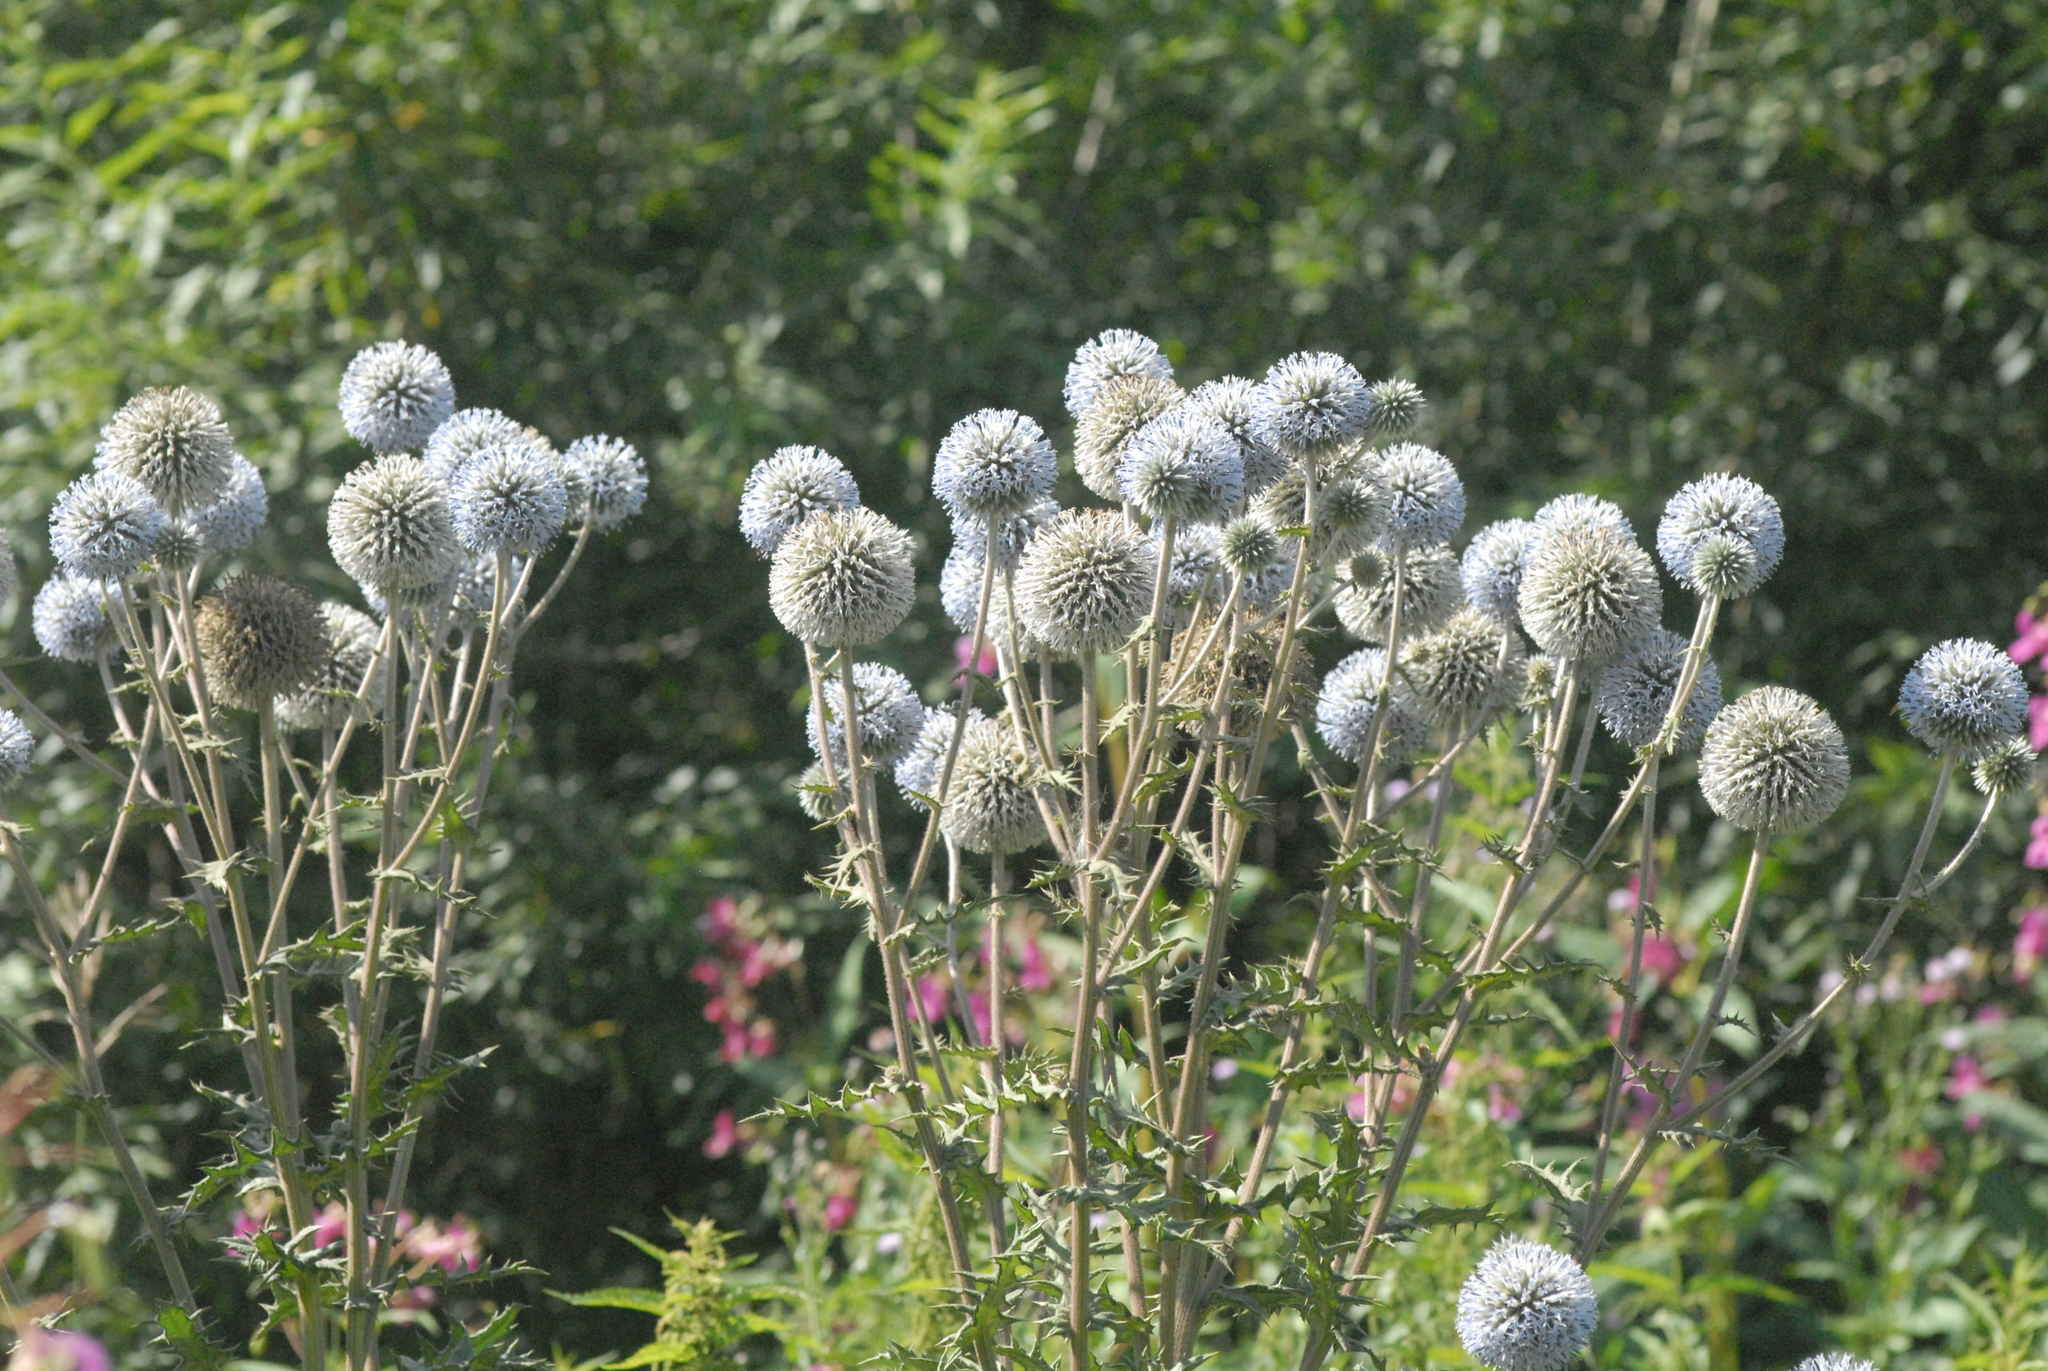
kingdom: Plantae
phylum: Tracheophyta
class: Magnoliopsida
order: Asterales
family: Asteraceae
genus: Echinops
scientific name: Echinops sphaerocephalus
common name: Glandular globe-thistle
